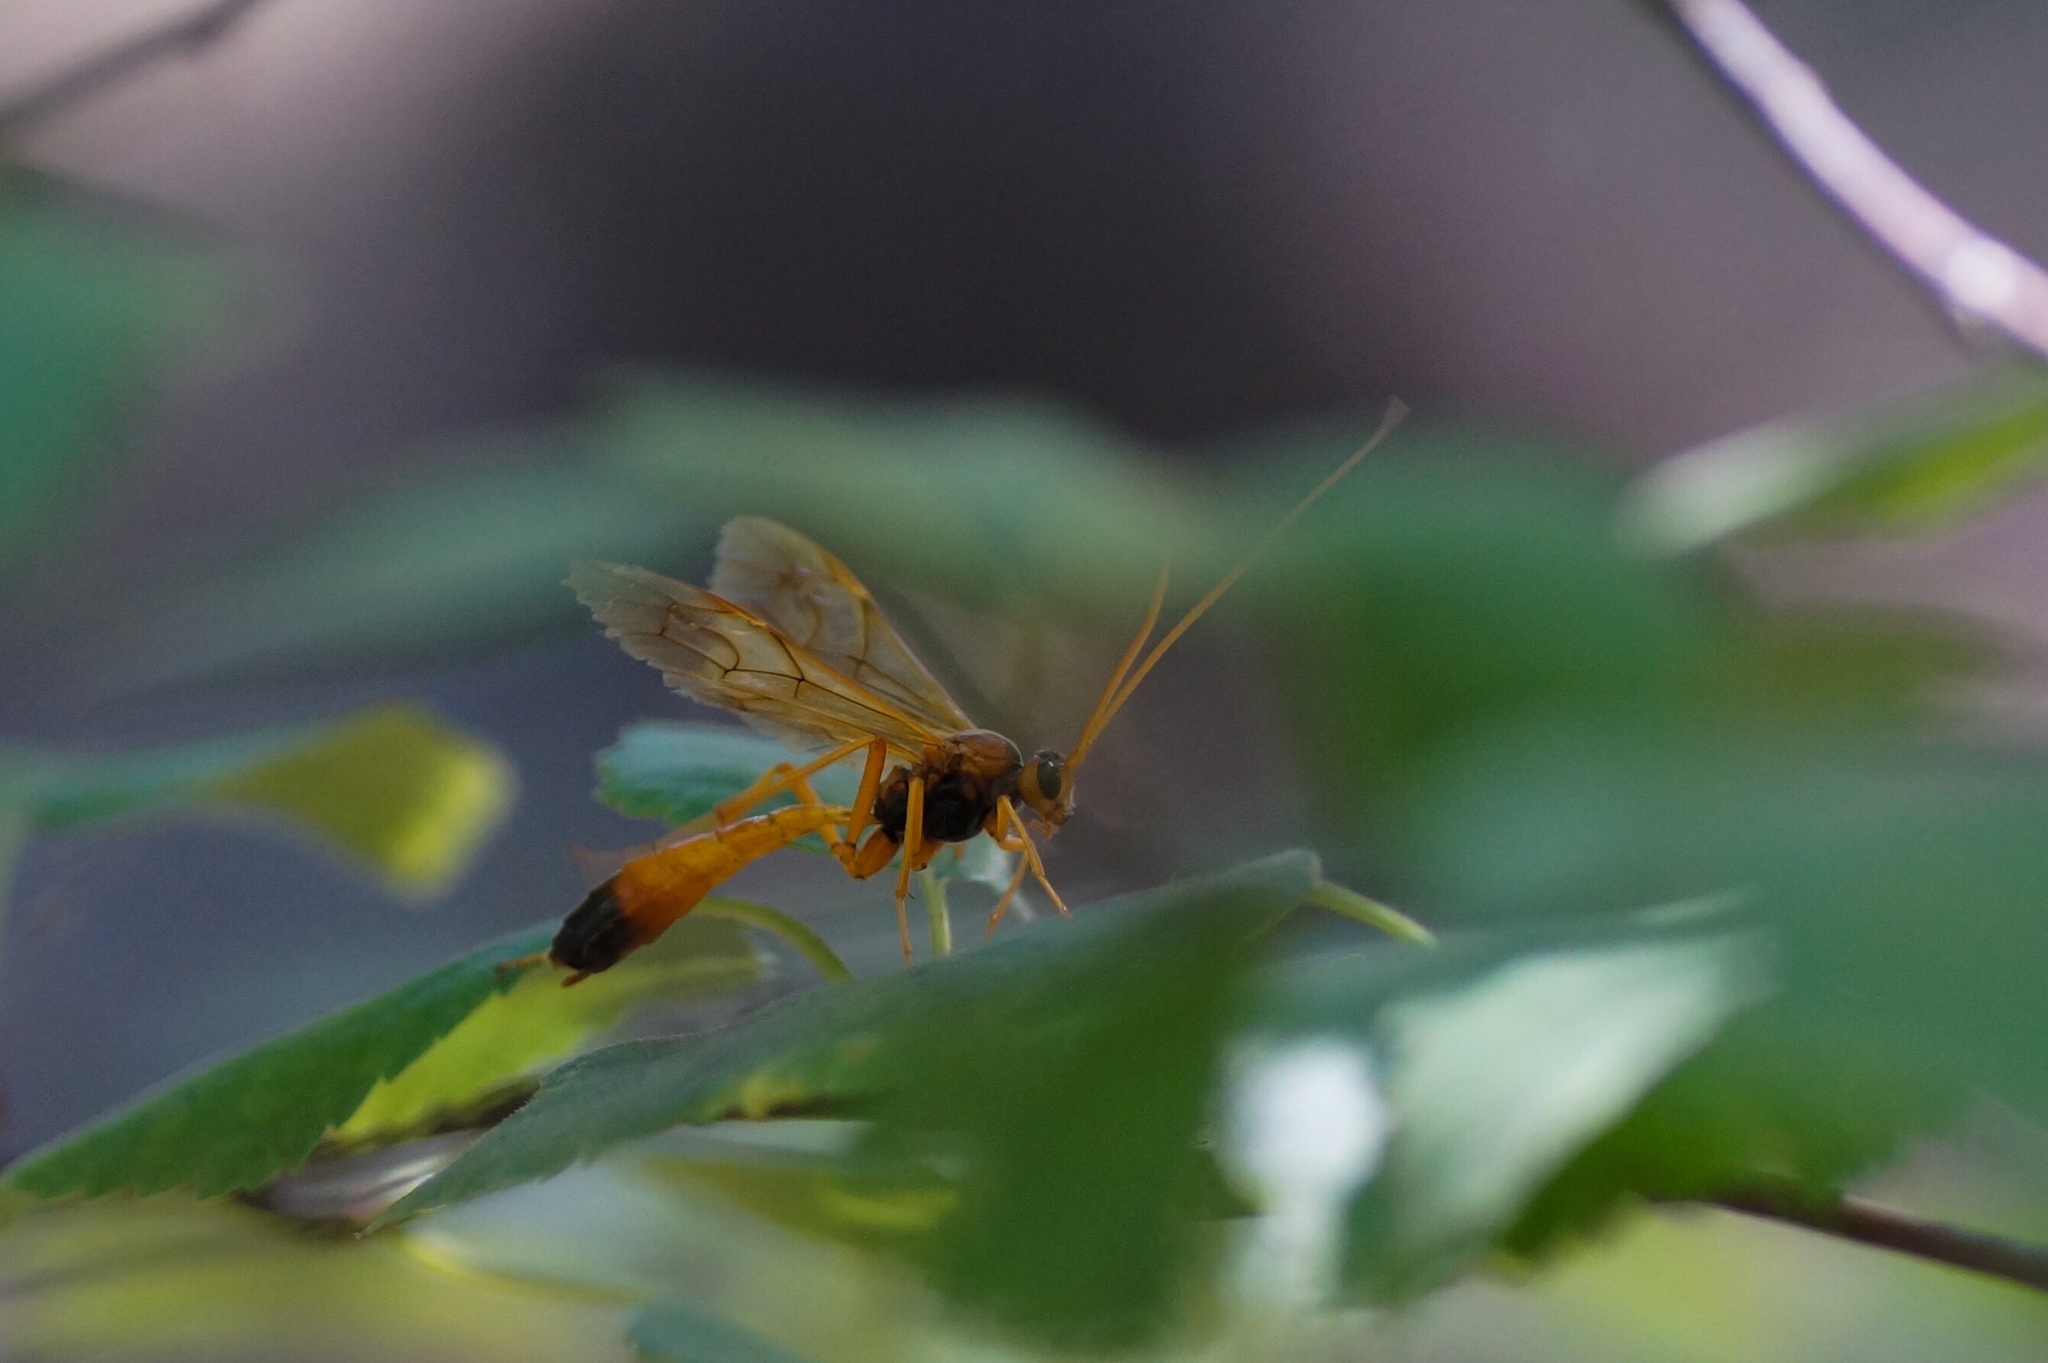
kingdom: Animalia
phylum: Arthropoda
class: Insecta
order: Hymenoptera
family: Ichneumonidae
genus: Opheltes
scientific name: Opheltes glaucopterus
